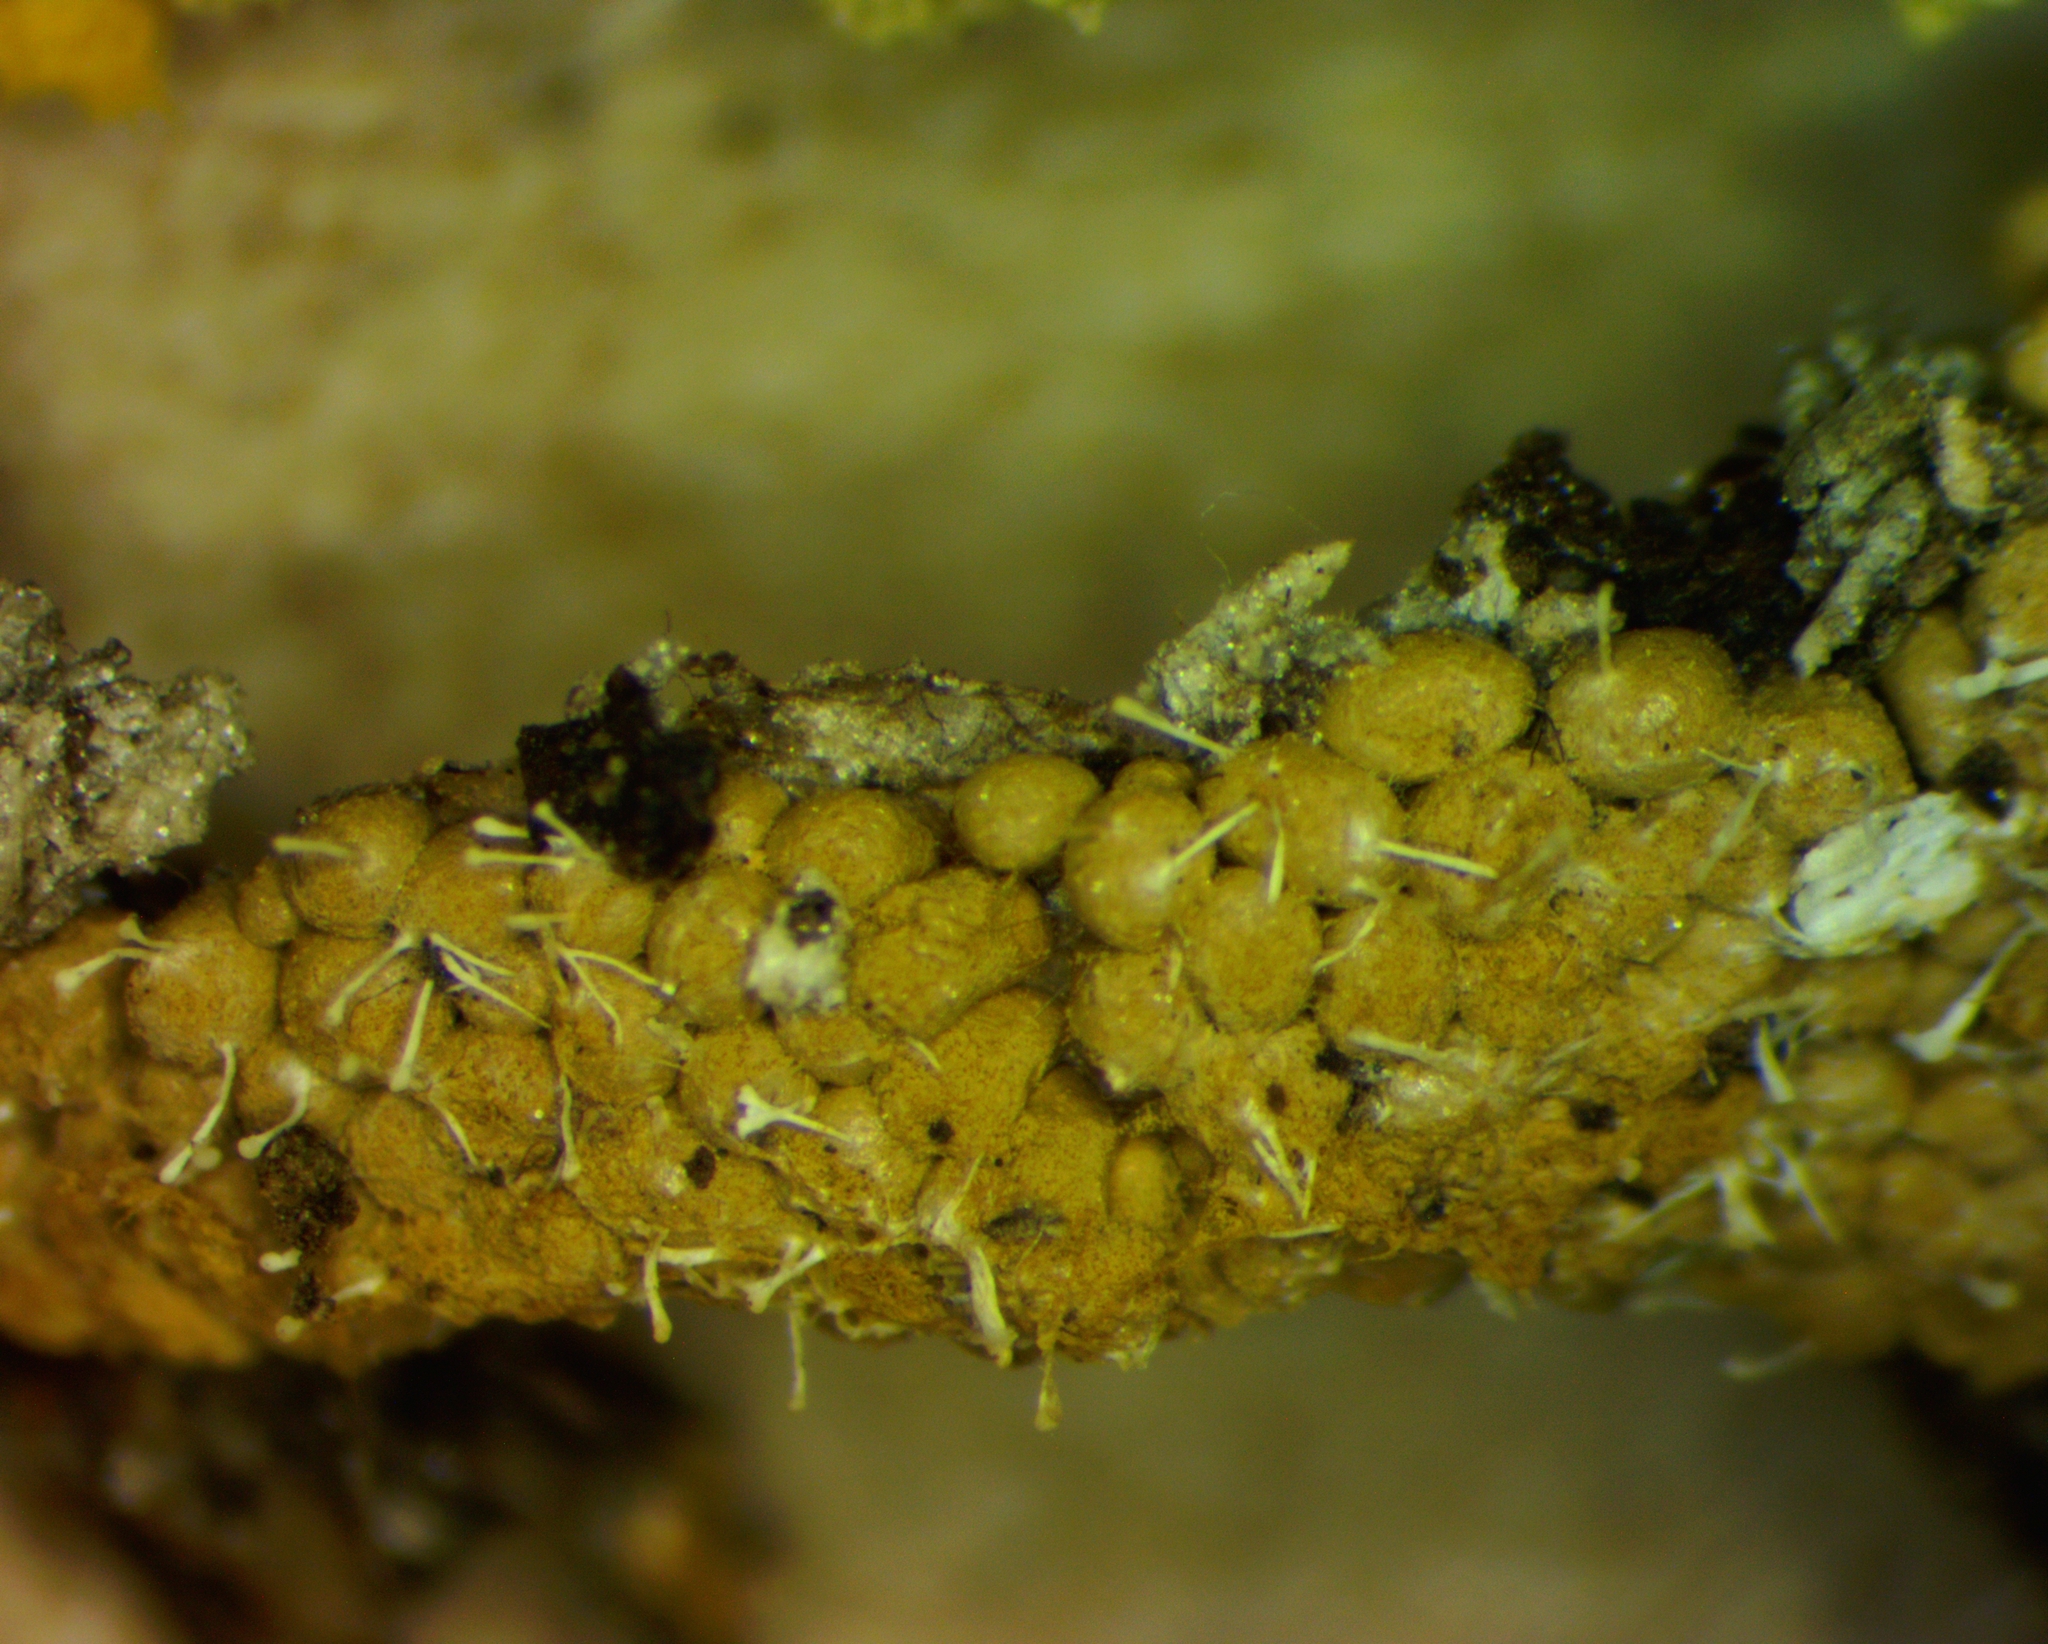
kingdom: Fungi
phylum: Ascomycota
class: Sordariomycetes
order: Hypocreales
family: Ophiocordycipitaceae
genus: Polycephalomyces
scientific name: Polycephalomyces tomentosus
